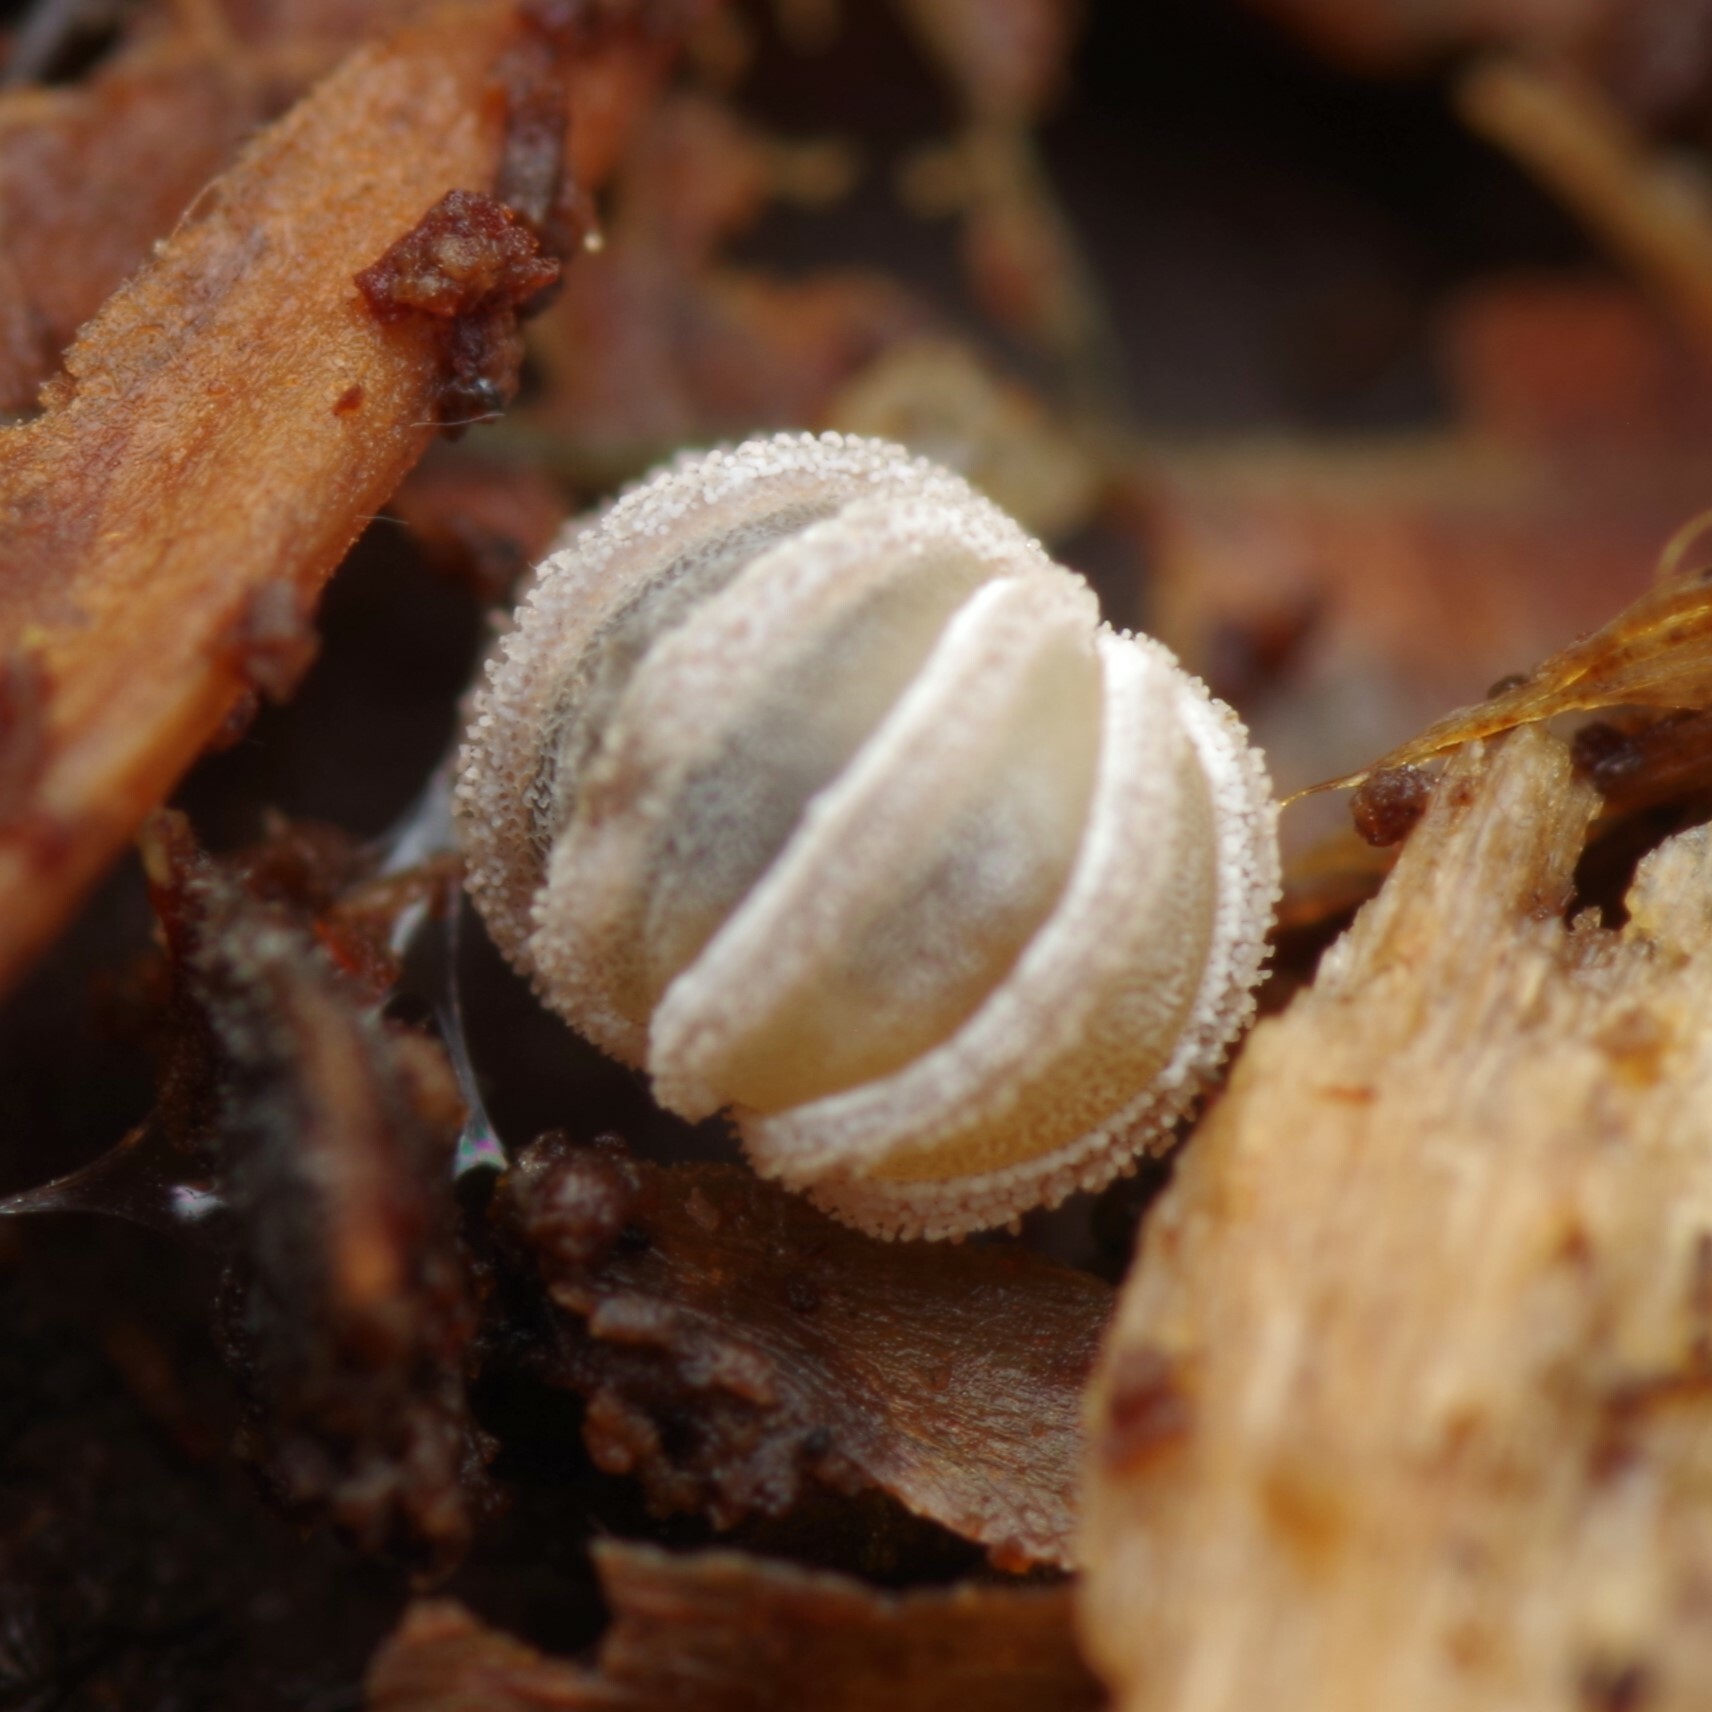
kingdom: Animalia
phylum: Arthropoda
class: Diplopoda
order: Glomerida
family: Glomeridae
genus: Trachysphaera
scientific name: Trachysphaera lobata
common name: Sand pill-millipede
